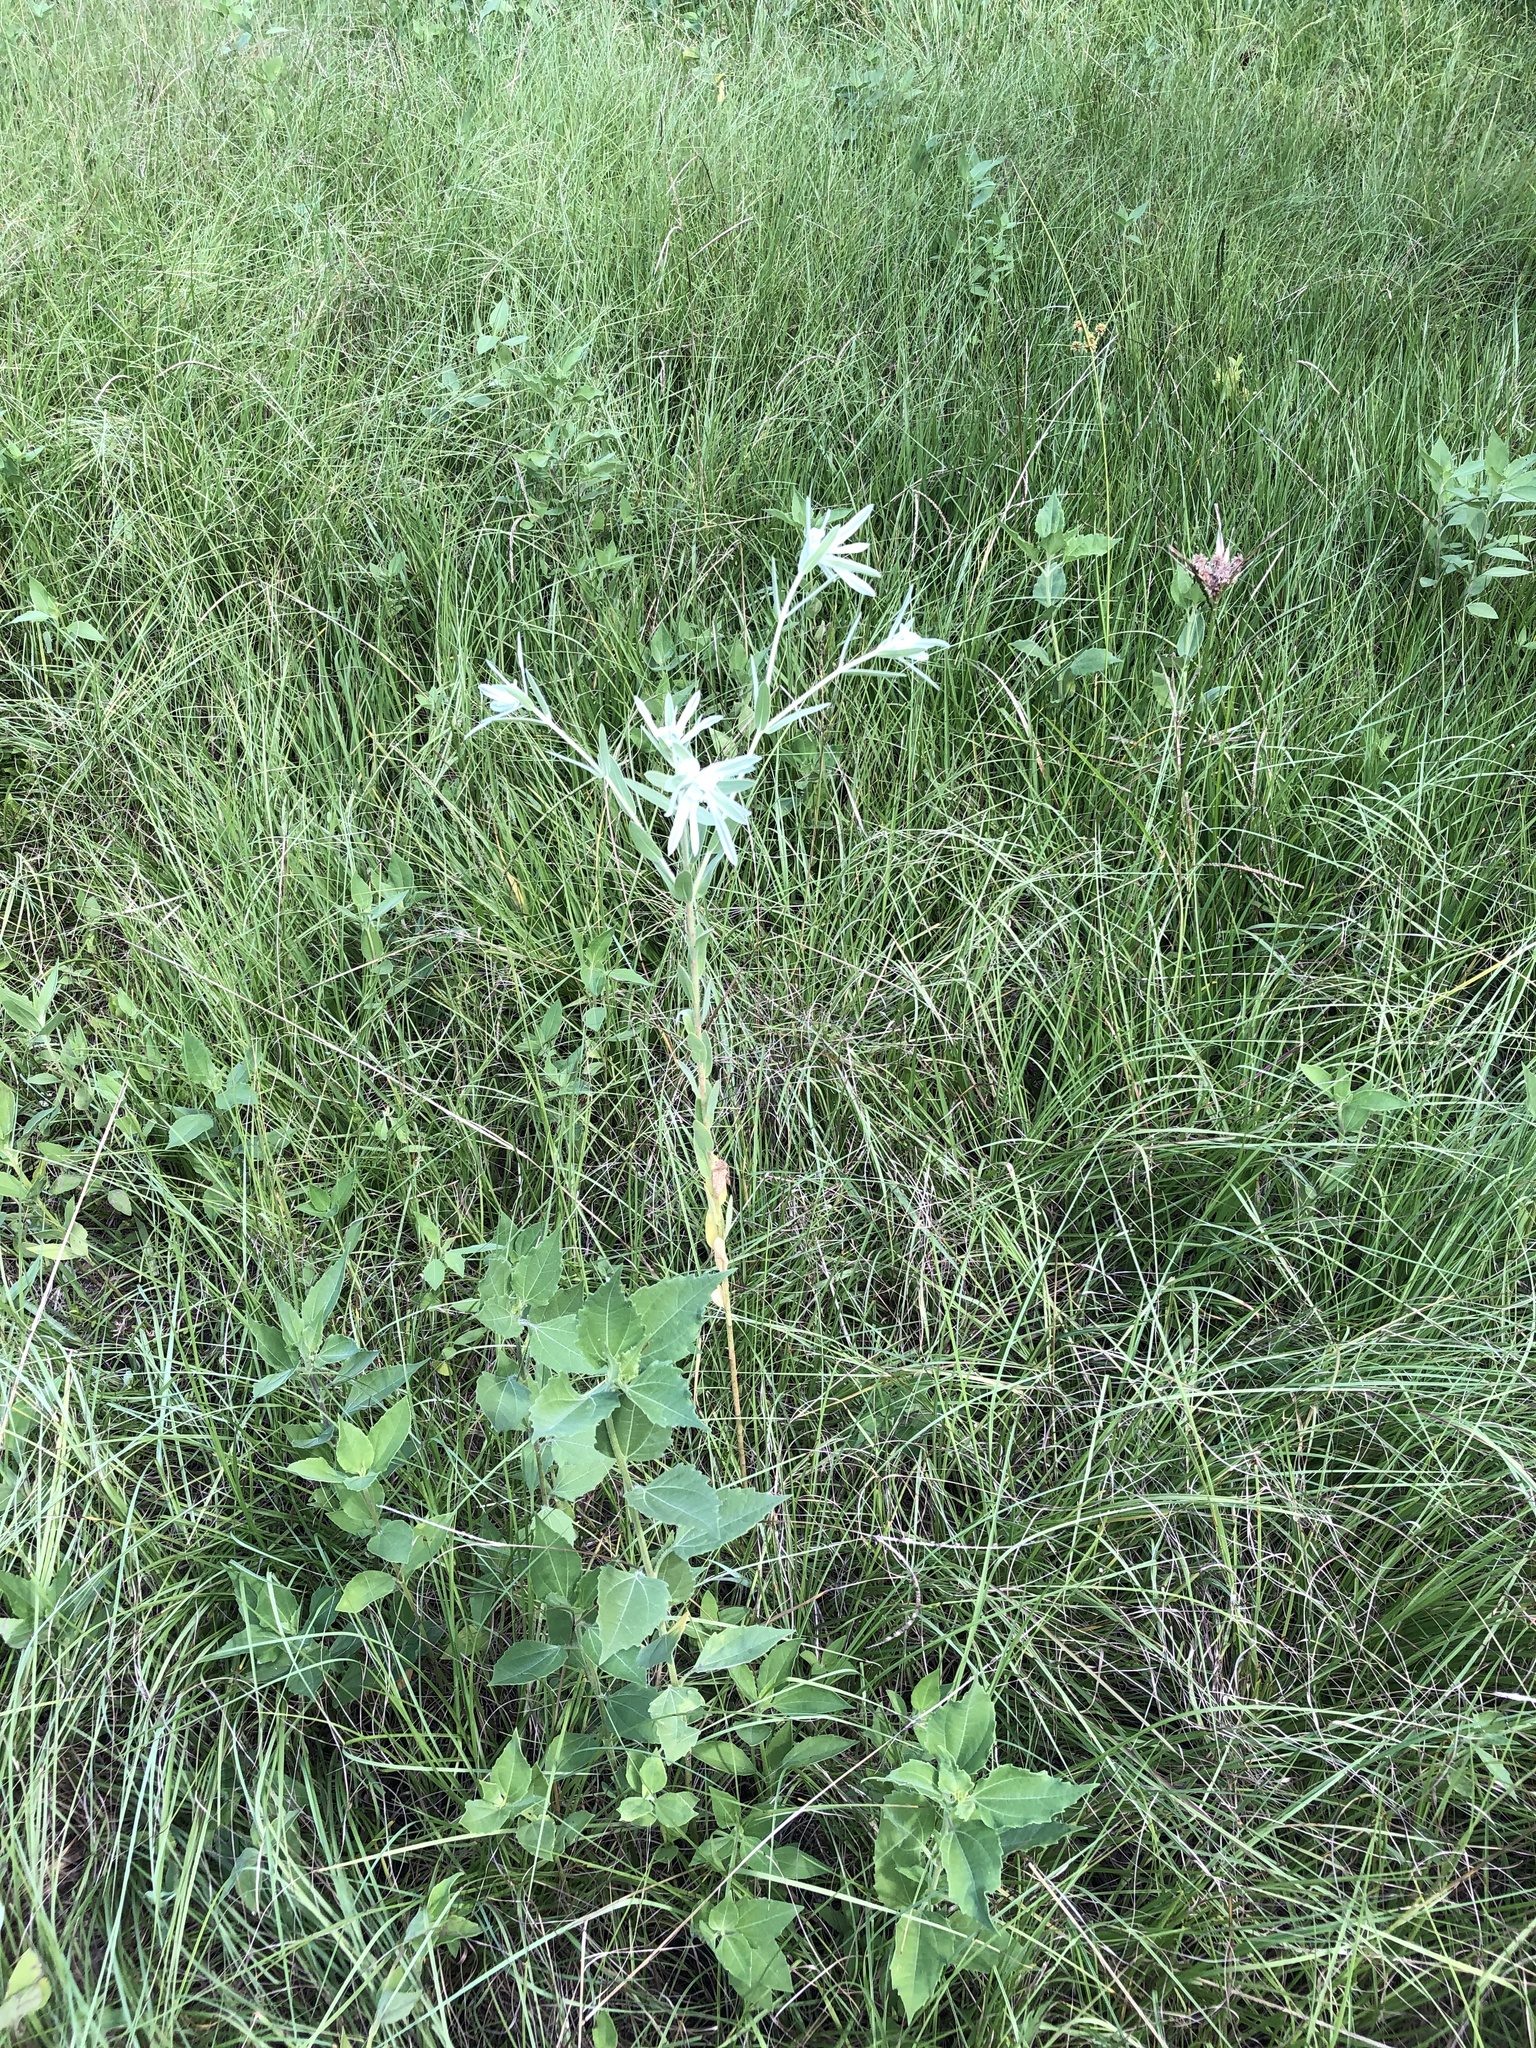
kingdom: Plantae
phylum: Tracheophyta
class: Magnoliopsida
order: Malpighiales
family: Euphorbiaceae
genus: Euphorbia
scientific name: Euphorbia bicolor
